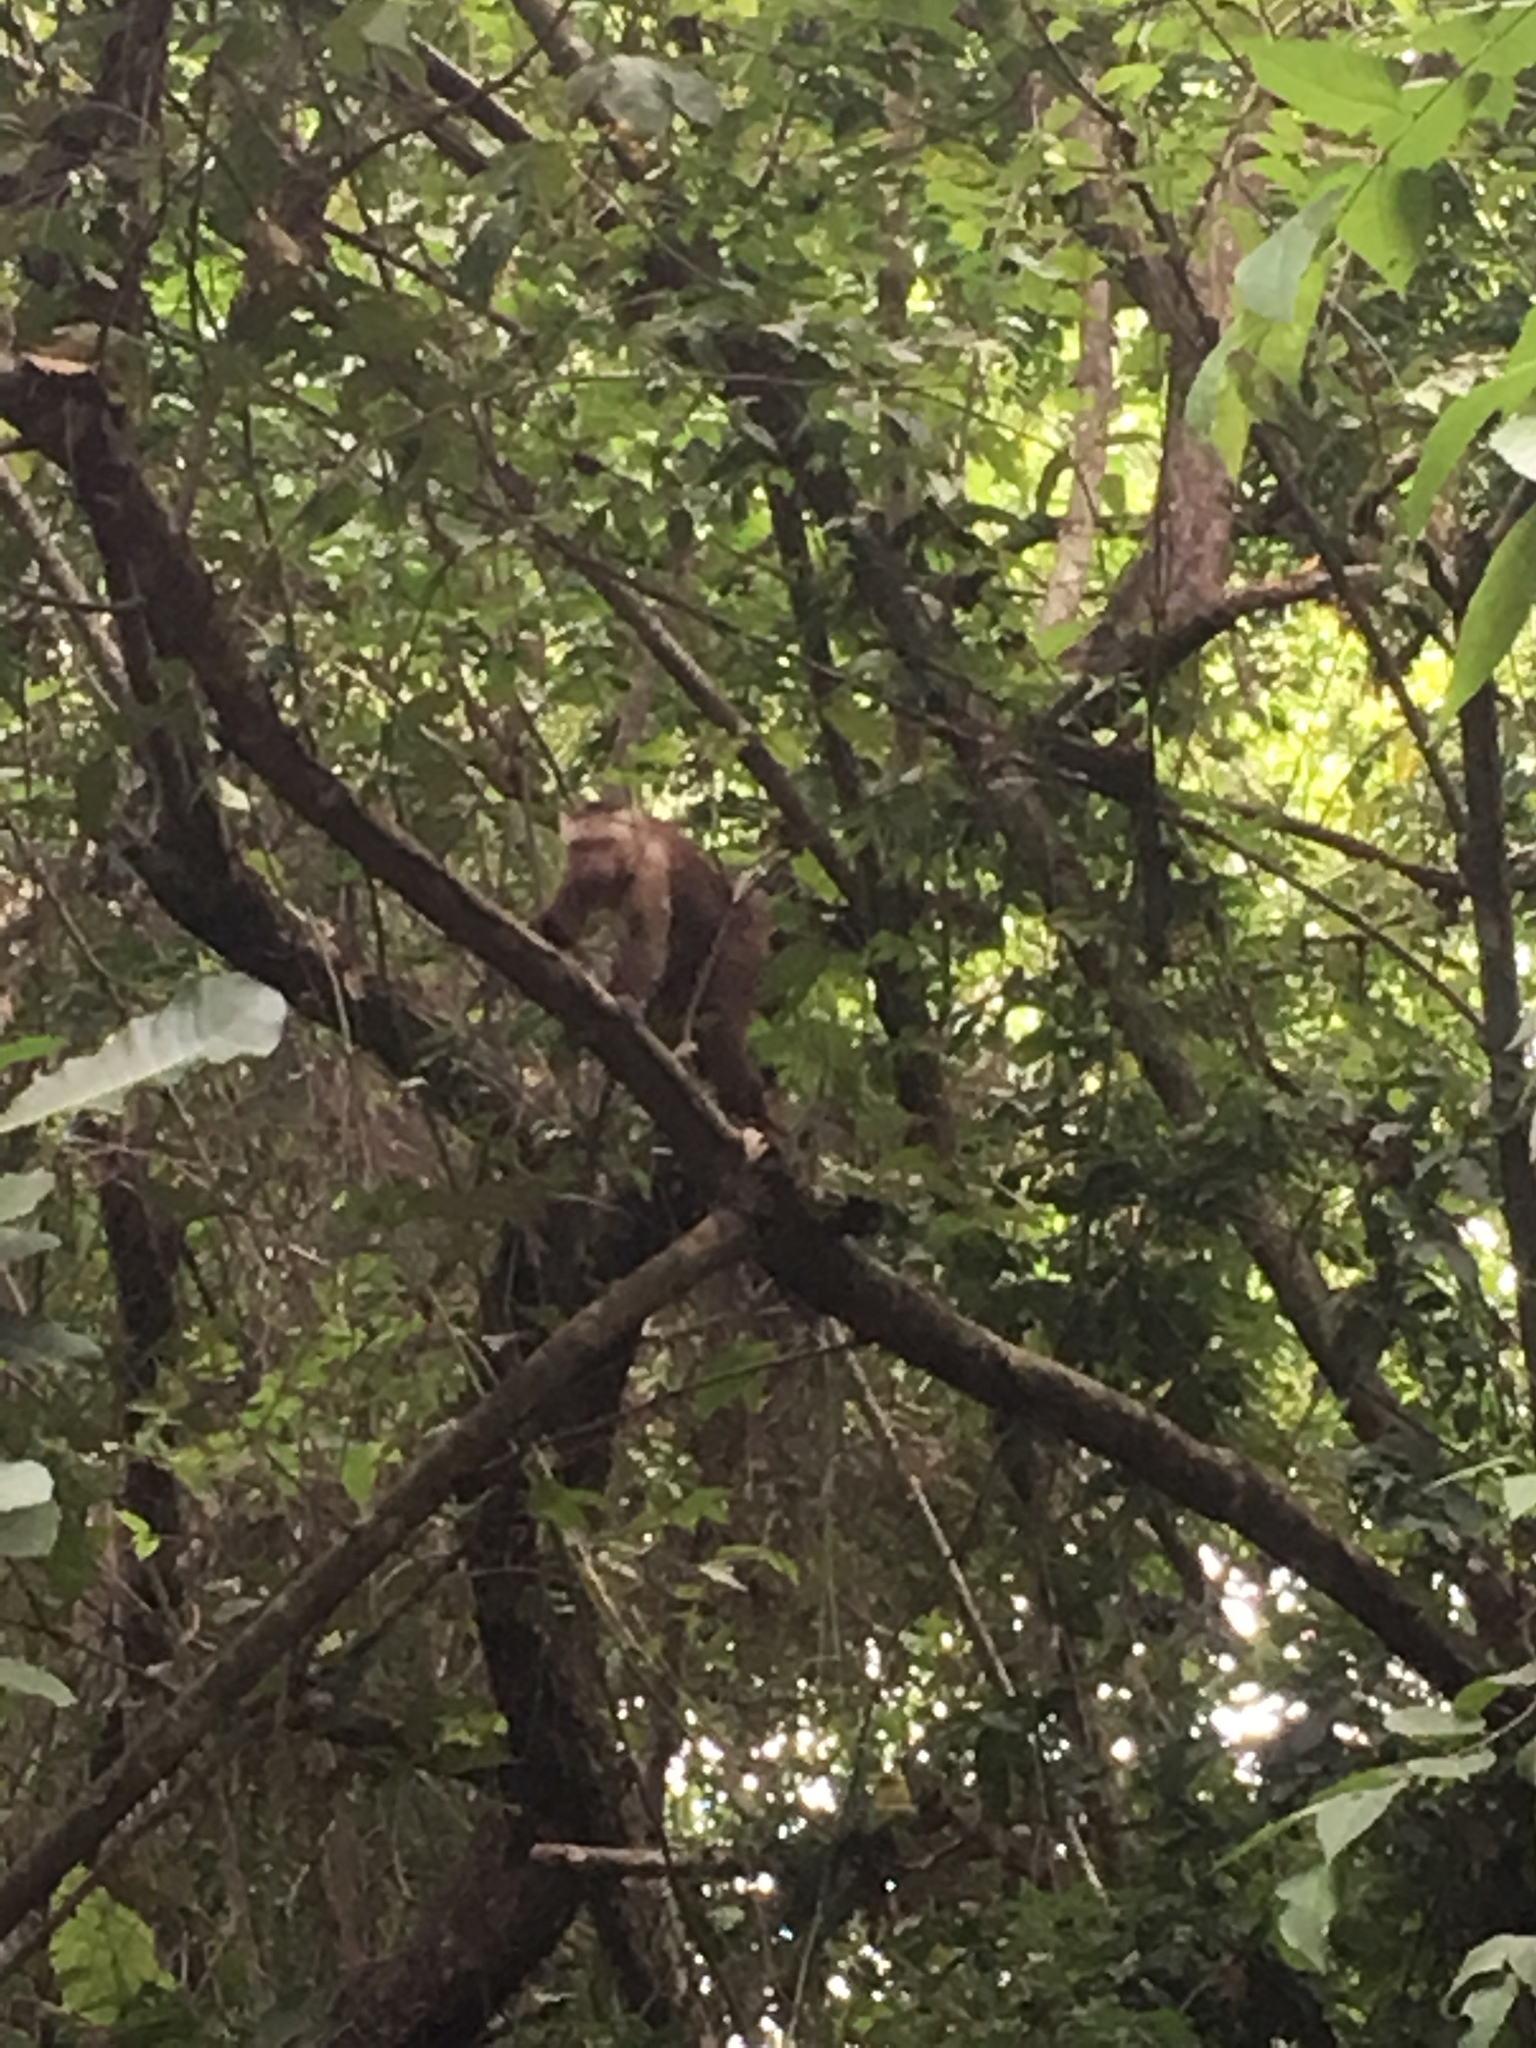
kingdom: Animalia
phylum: Chordata
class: Mammalia
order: Primates
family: Cebidae
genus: Cebus
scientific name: Cebus malitiosus
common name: Santa marta white-fronted capuchin
